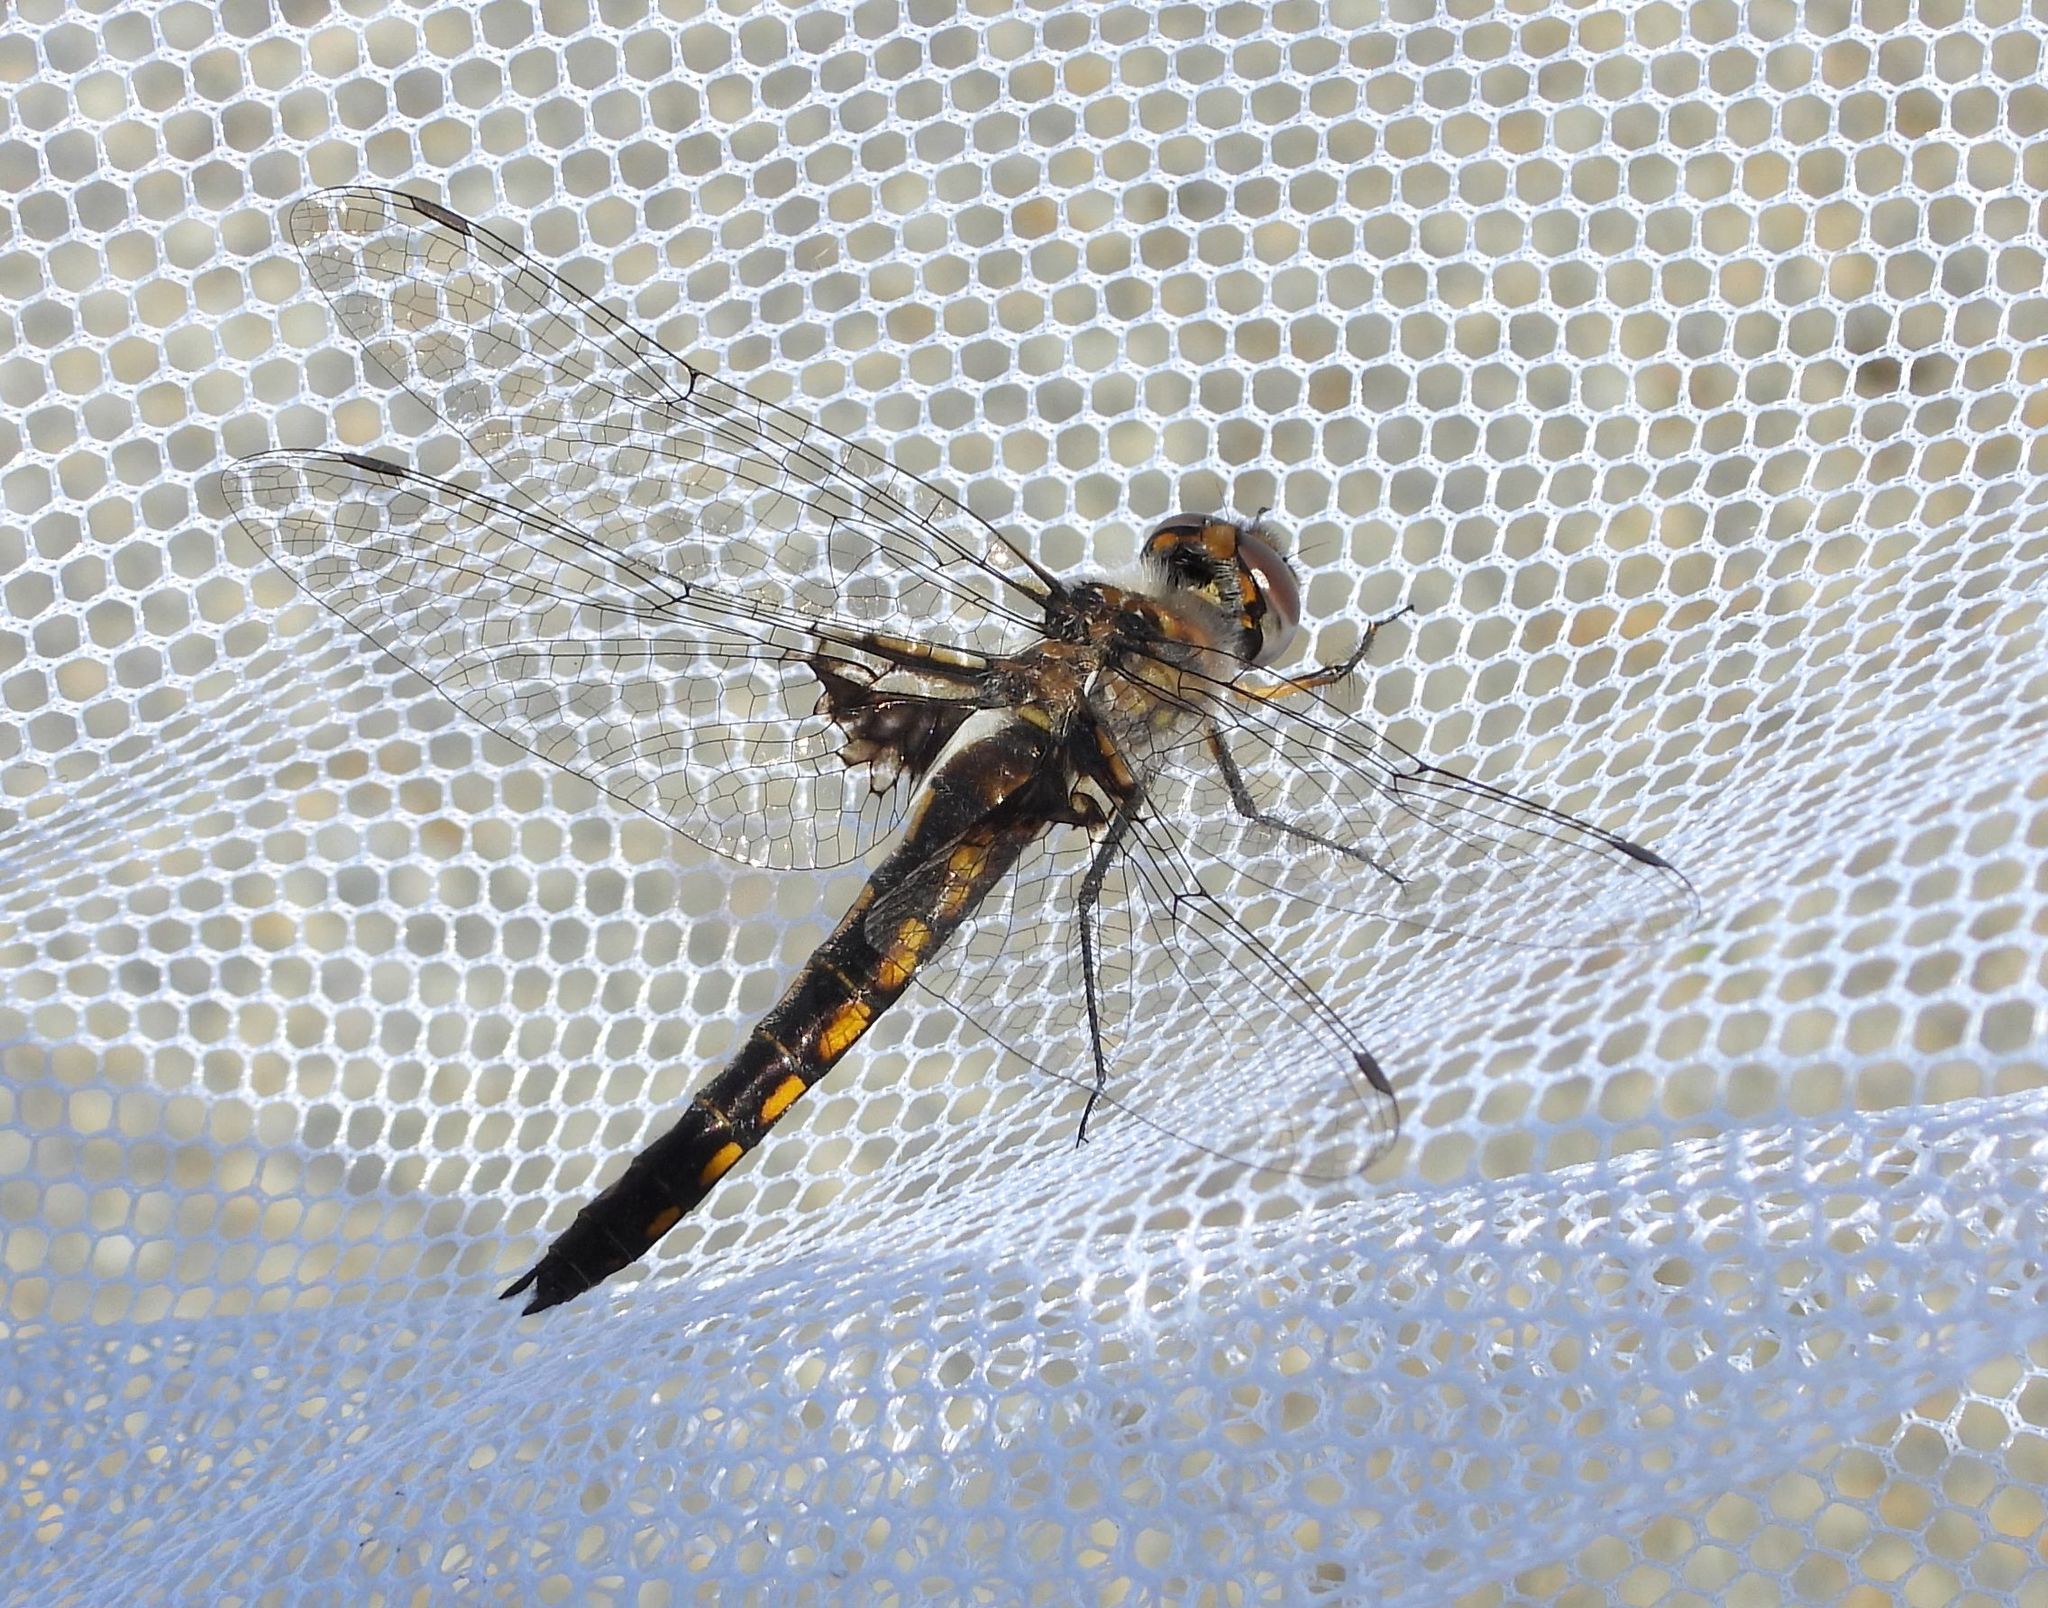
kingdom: Animalia
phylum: Arthropoda
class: Insecta
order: Odonata
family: Corduliidae
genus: Epitheca
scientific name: Epitheca cynosura
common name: Common baskettail
